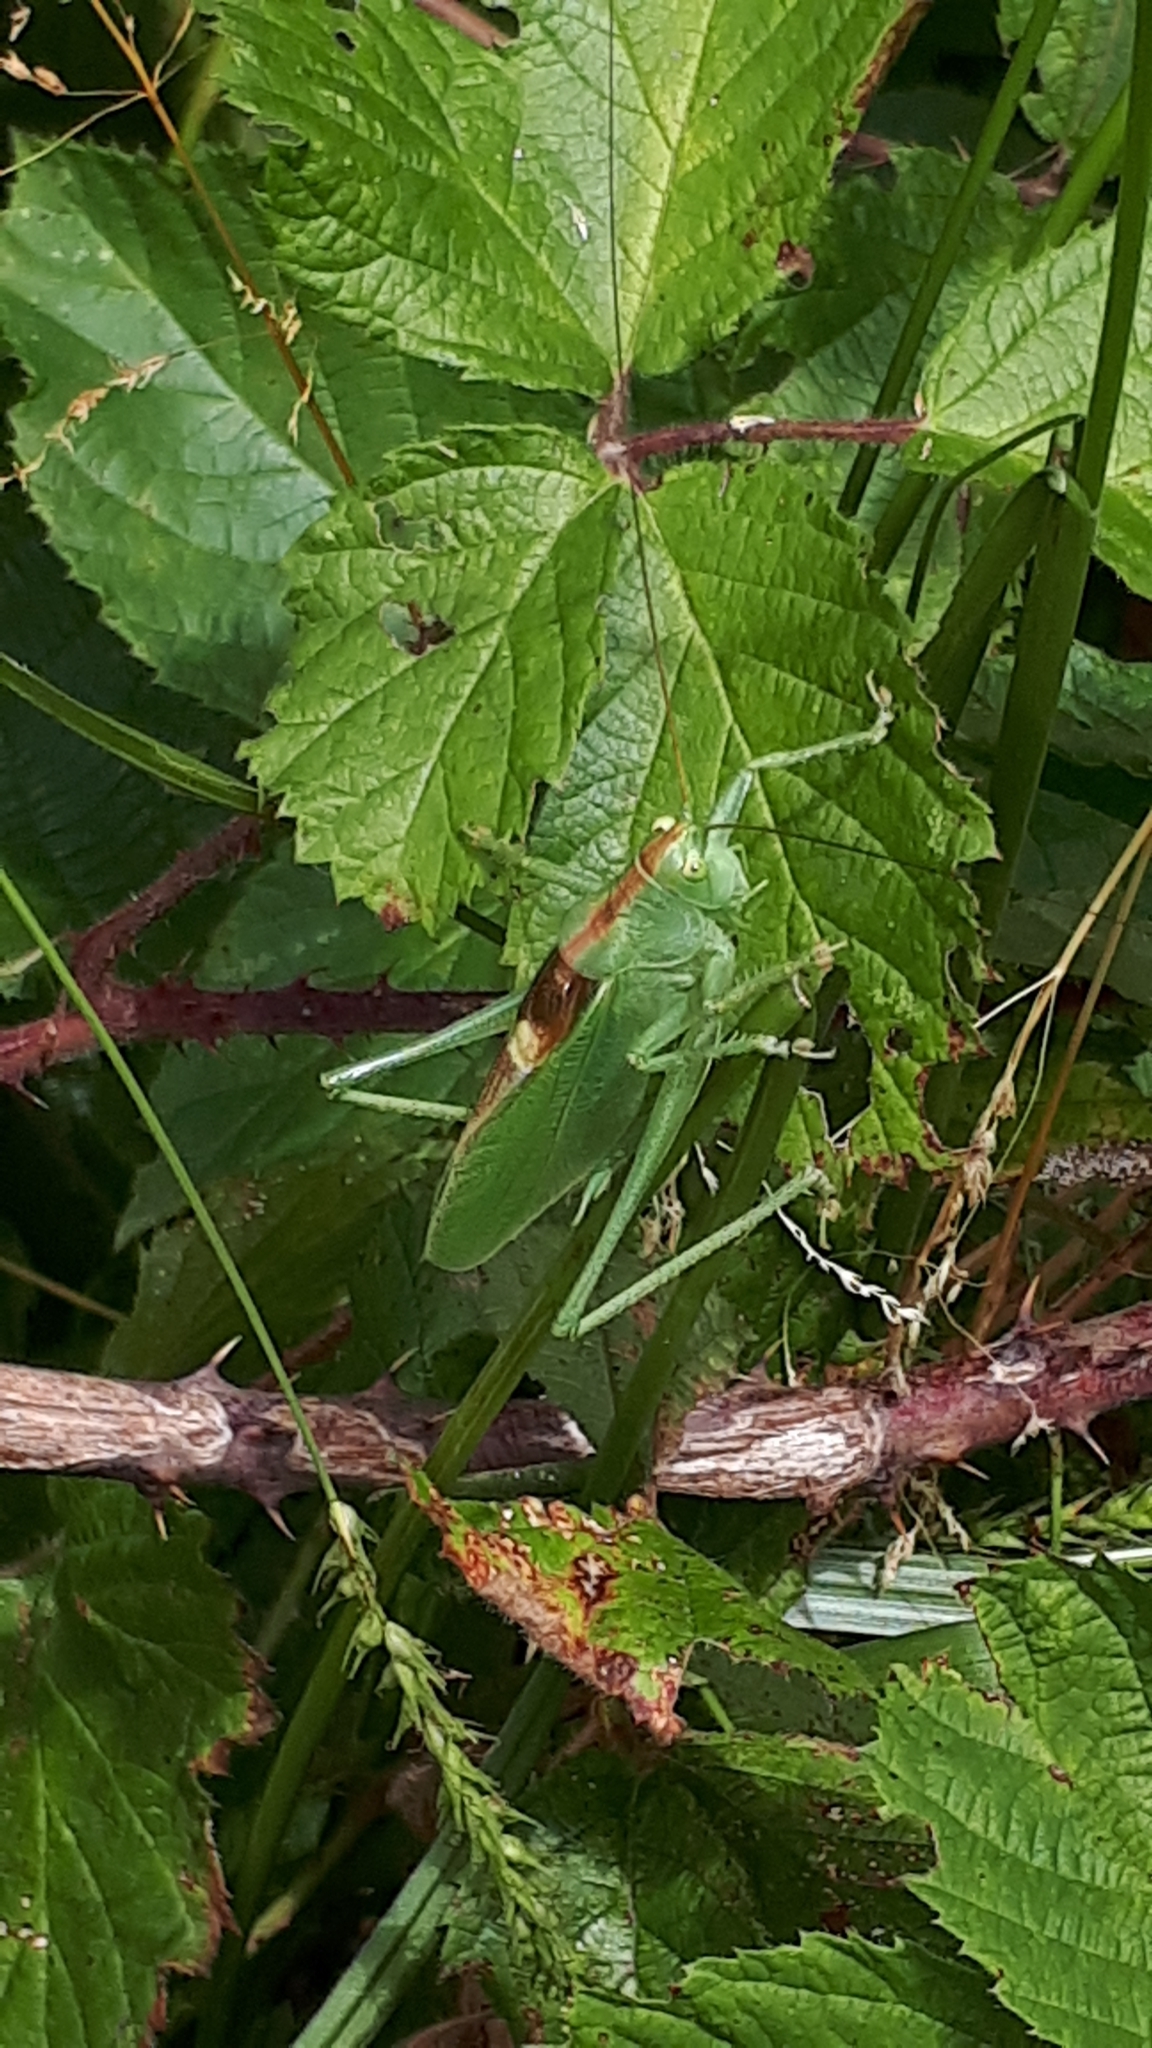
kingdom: Animalia
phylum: Arthropoda
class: Insecta
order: Orthoptera
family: Tettigoniidae
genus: Tettigonia
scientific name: Tettigonia cantans
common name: Upland green bush-cricket
